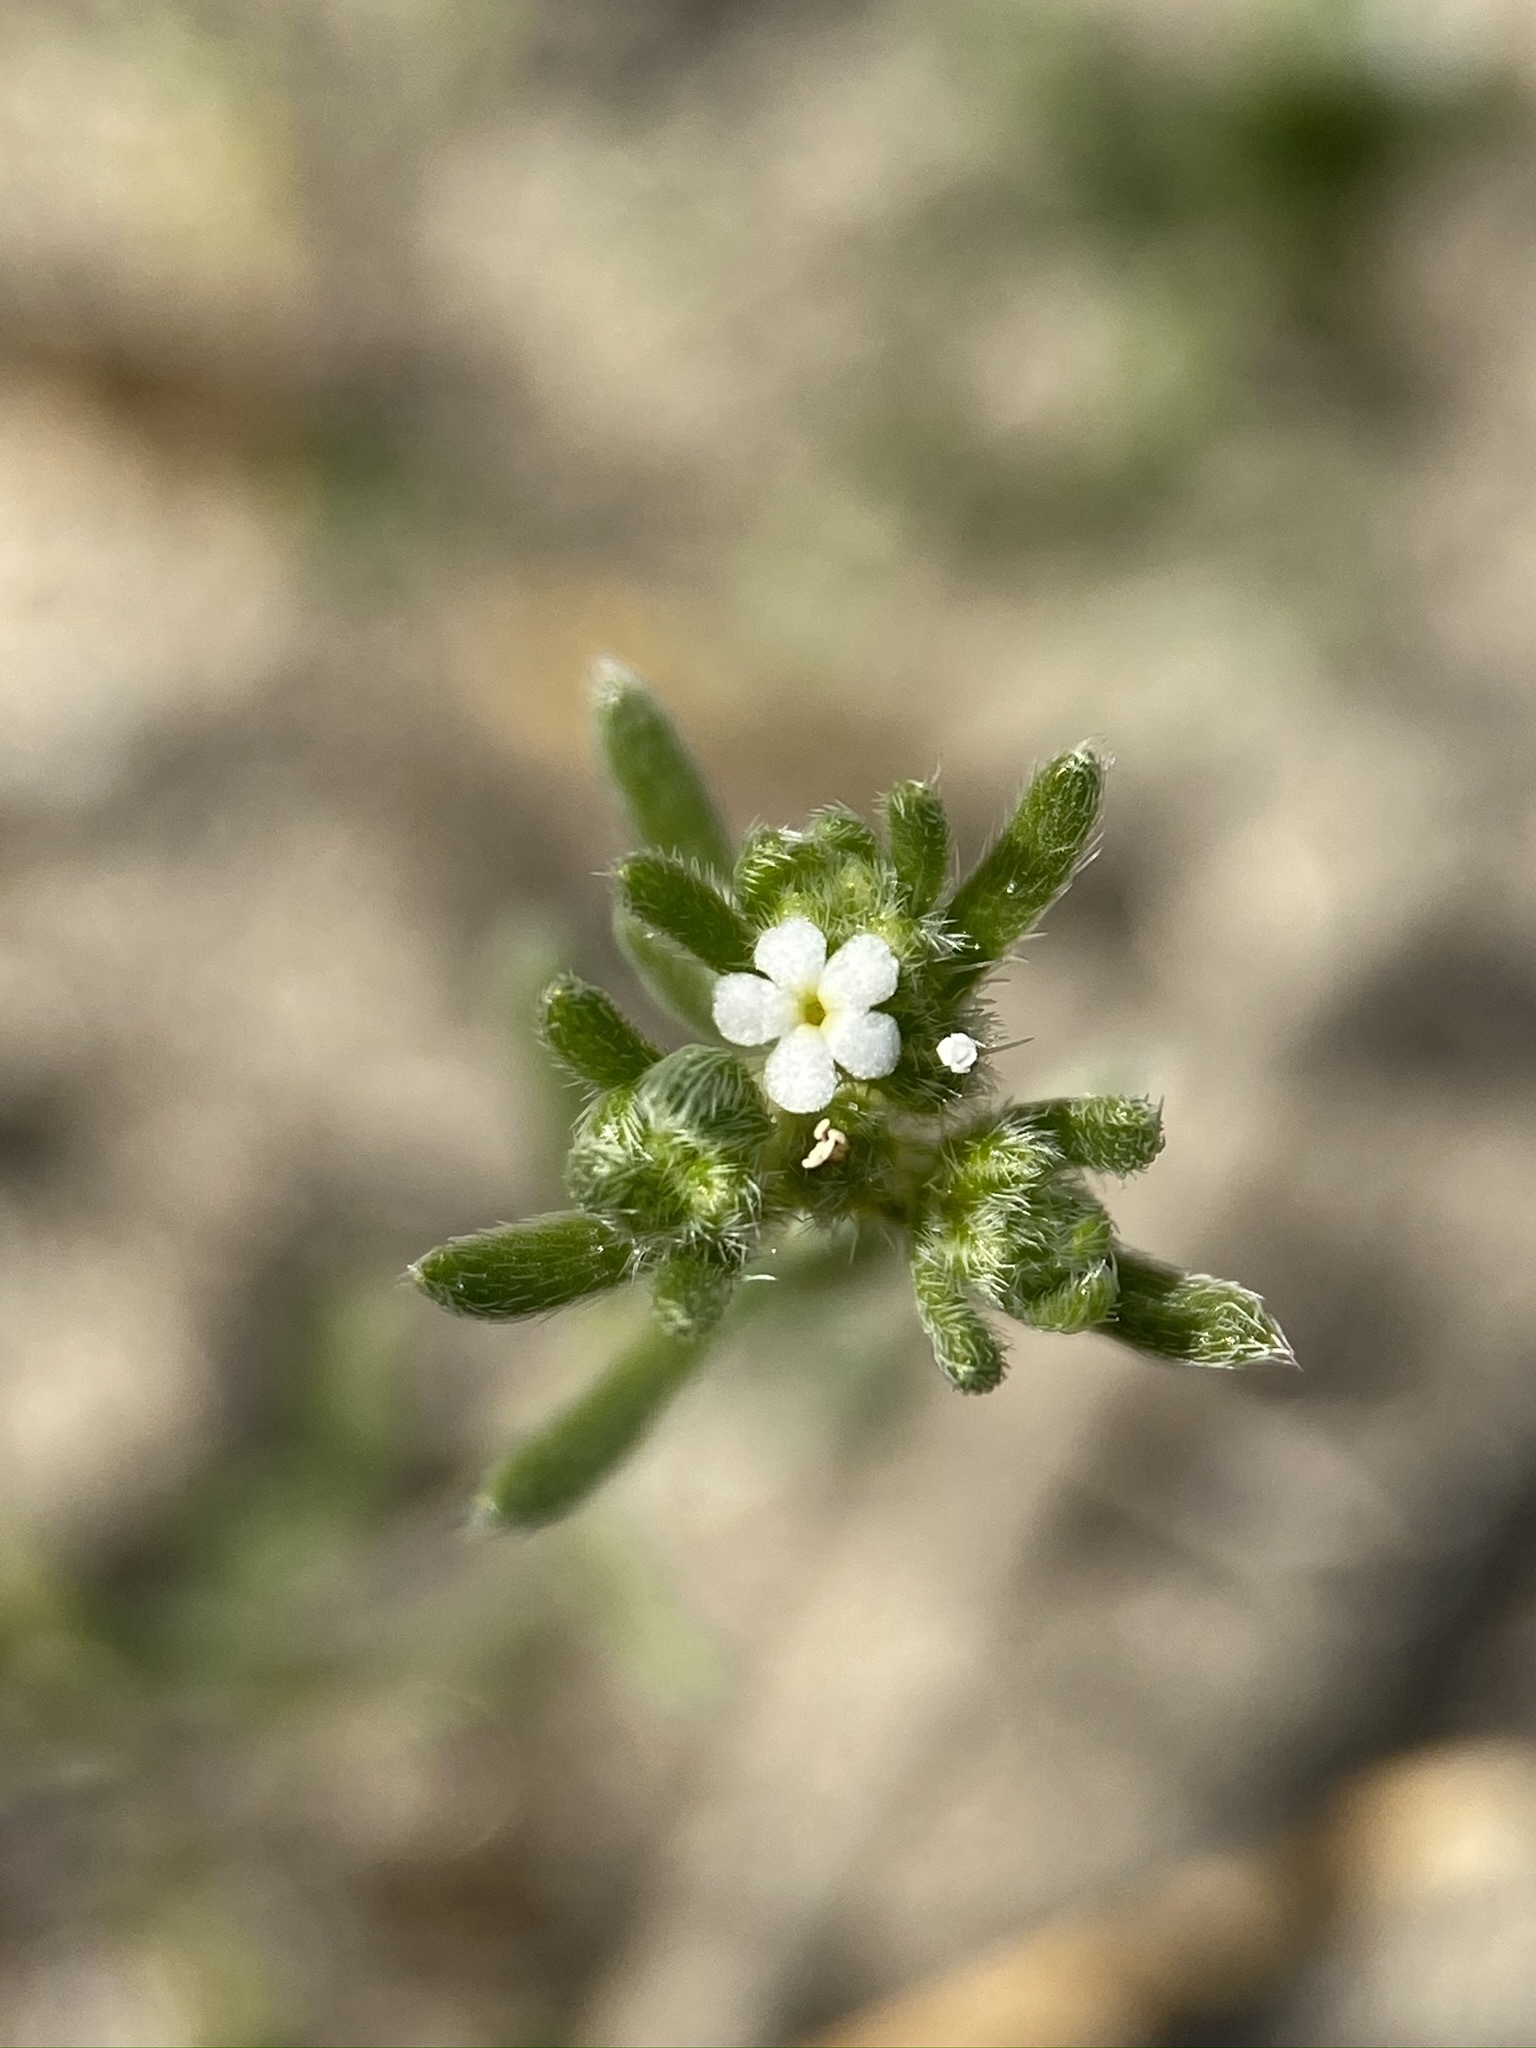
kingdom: Plantae
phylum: Tracheophyta
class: Magnoliopsida
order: Boraginales
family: Boraginaceae
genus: Eremocarya
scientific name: Eremocarya micrantha
